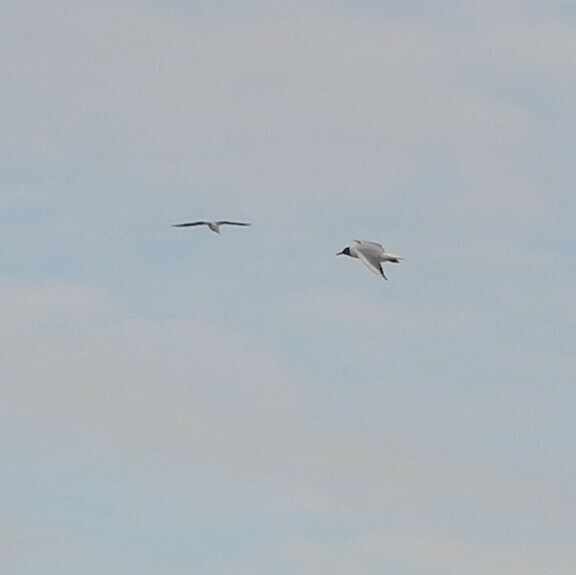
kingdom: Animalia
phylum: Chordata
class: Aves
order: Charadriiformes
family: Laridae
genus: Chroicocephalus
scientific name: Chroicocephalus ridibundus
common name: Black-headed gull
